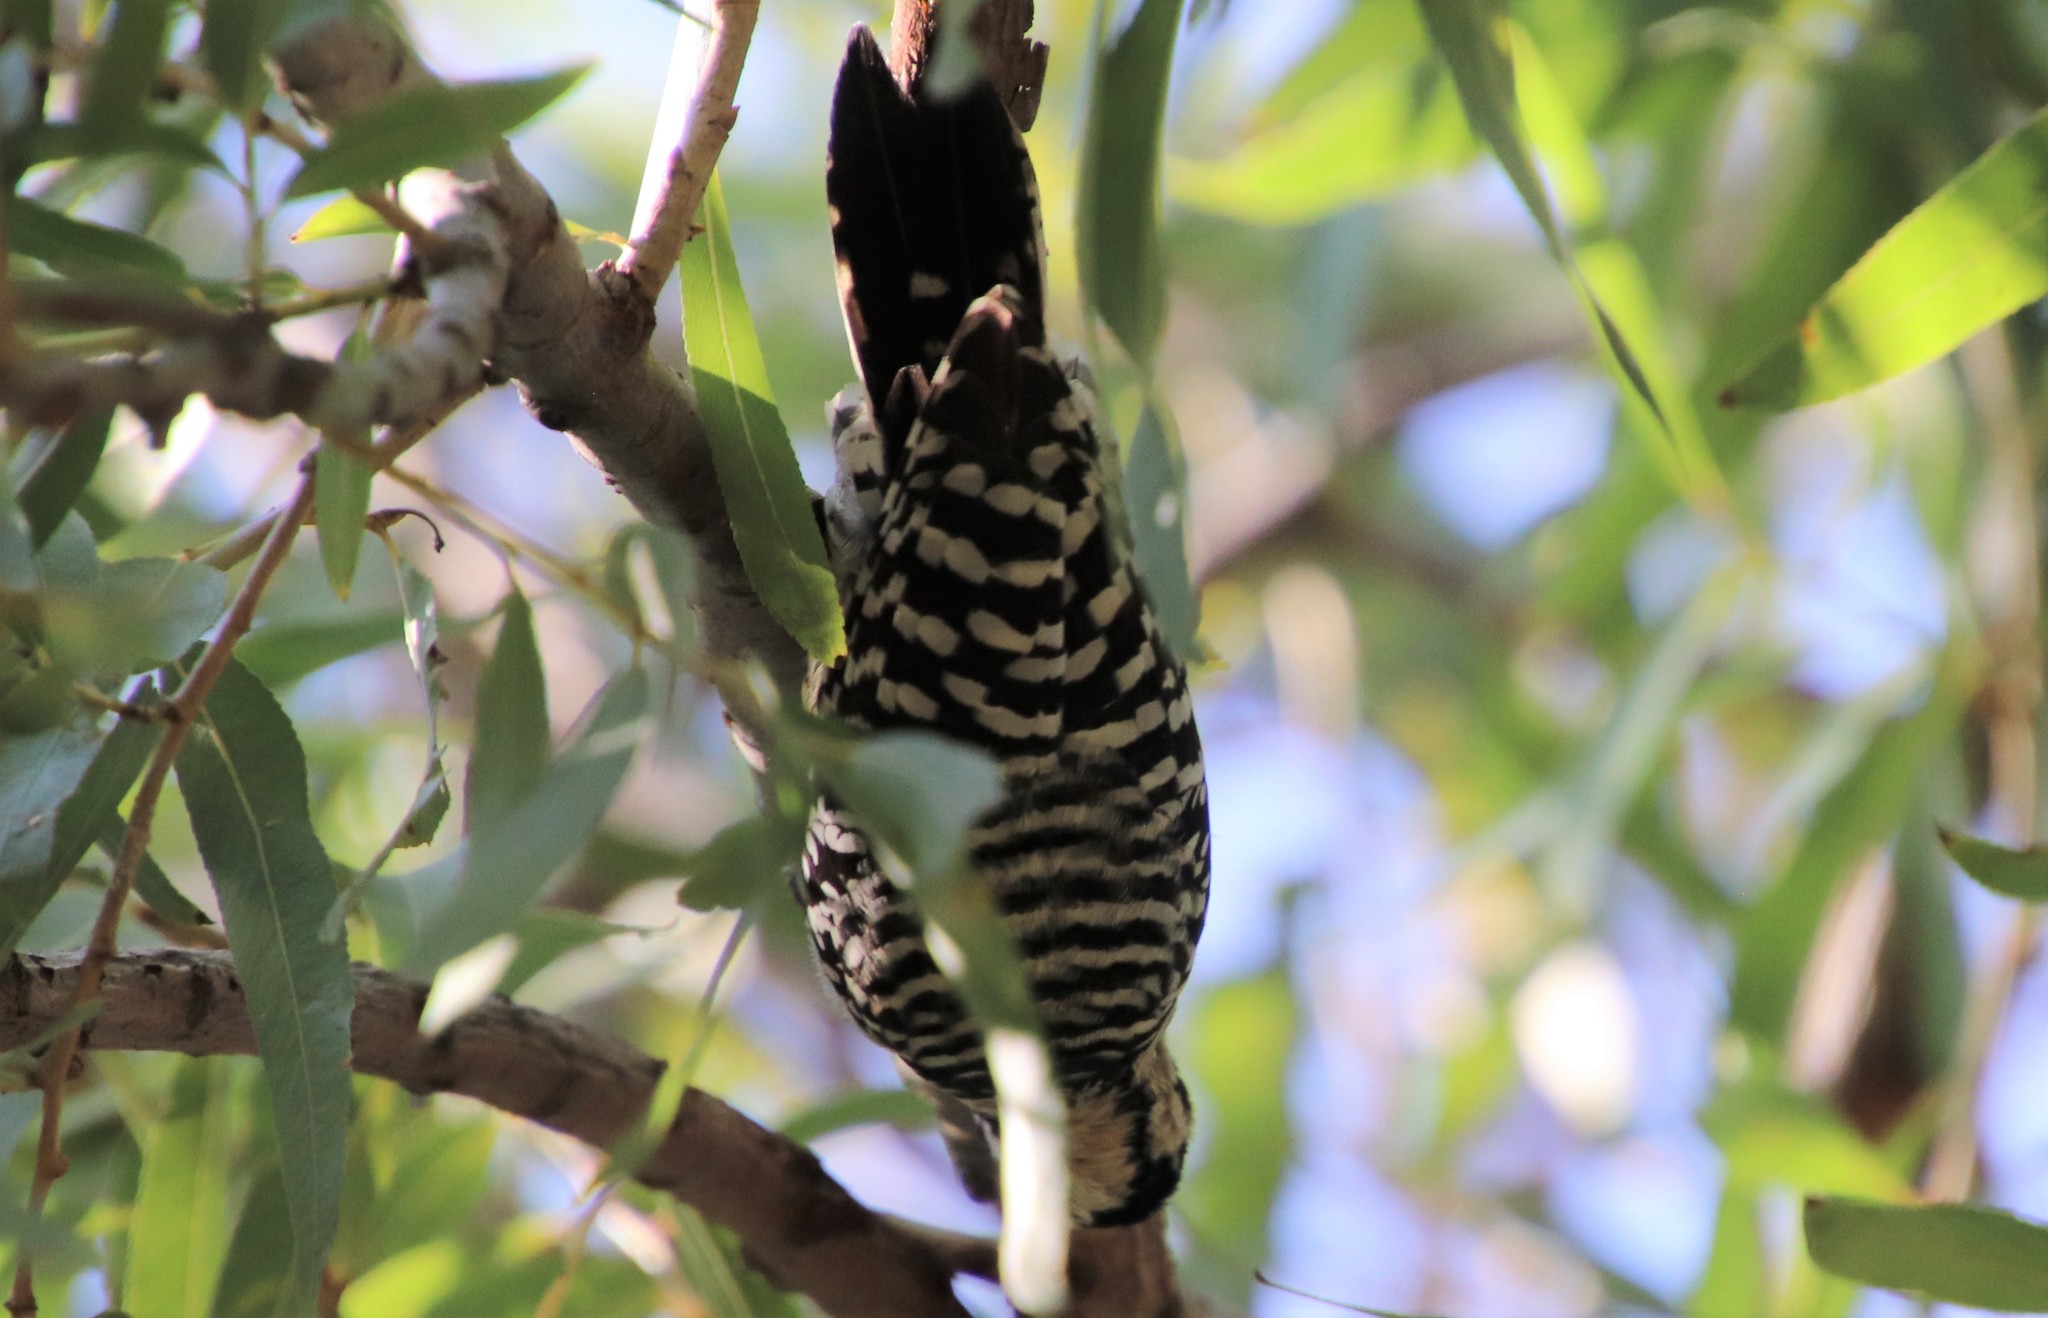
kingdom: Animalia
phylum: Chordata
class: Aves
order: Piciformes
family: Picidae
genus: Dryobates
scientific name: Dryobates scalaris
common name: Ladder-backed woodpecker
